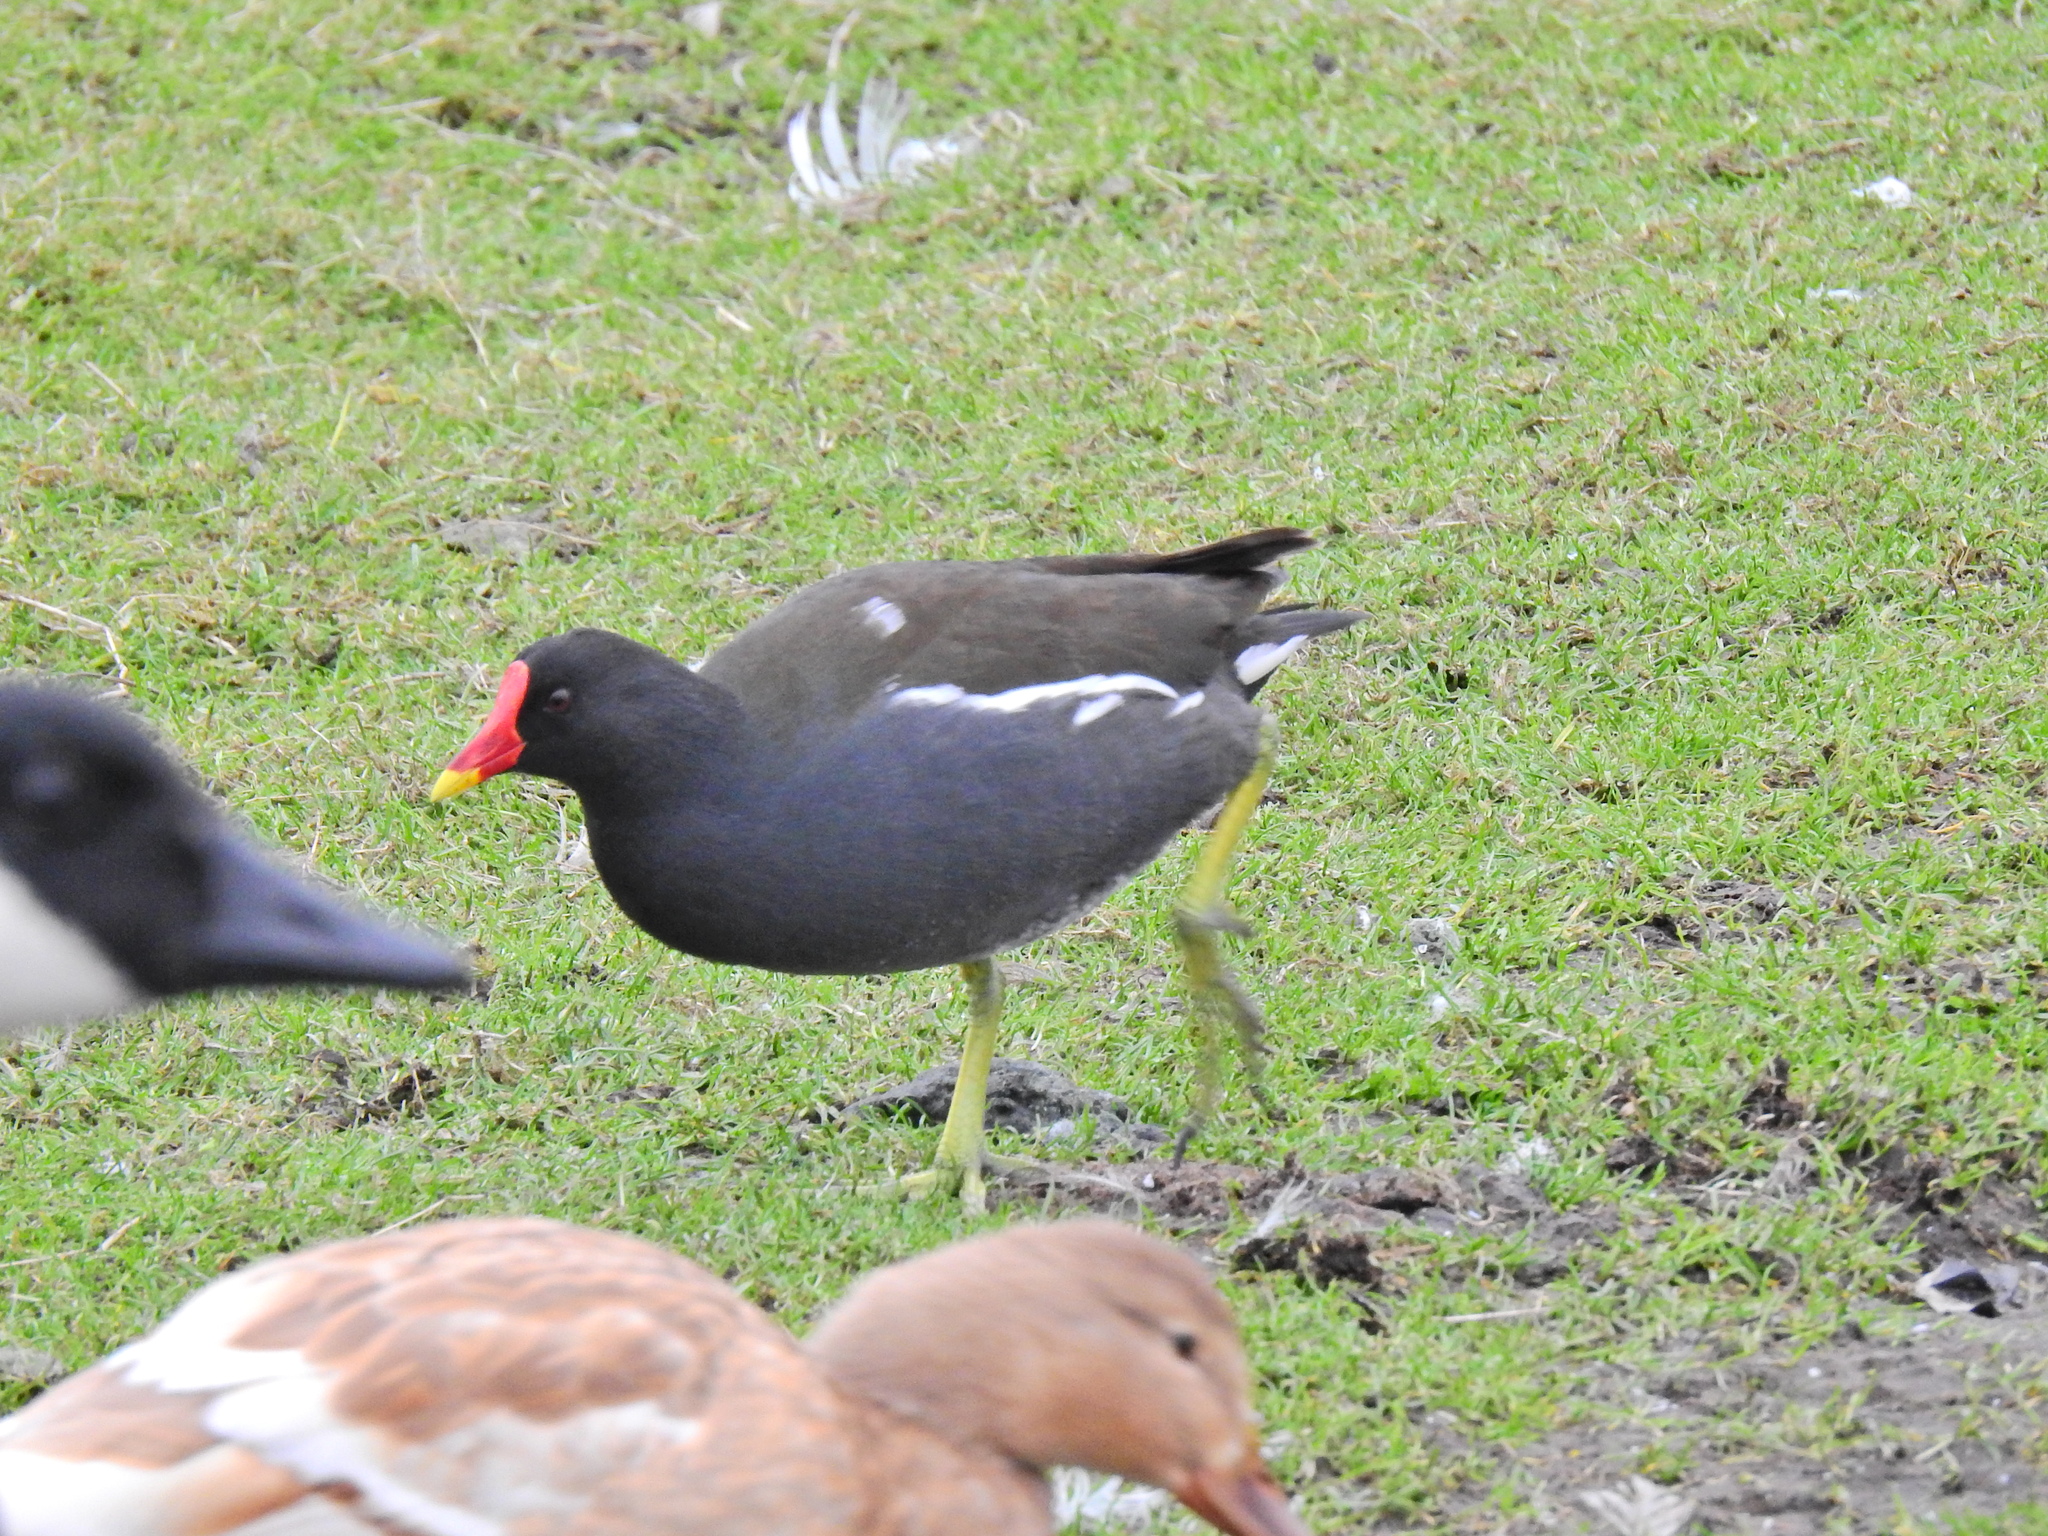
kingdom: Animalia
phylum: Chordata
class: Aves
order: Gruiformes
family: Rallidae
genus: Gallinula
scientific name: Gallinula chloropus
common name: Common moorhen
